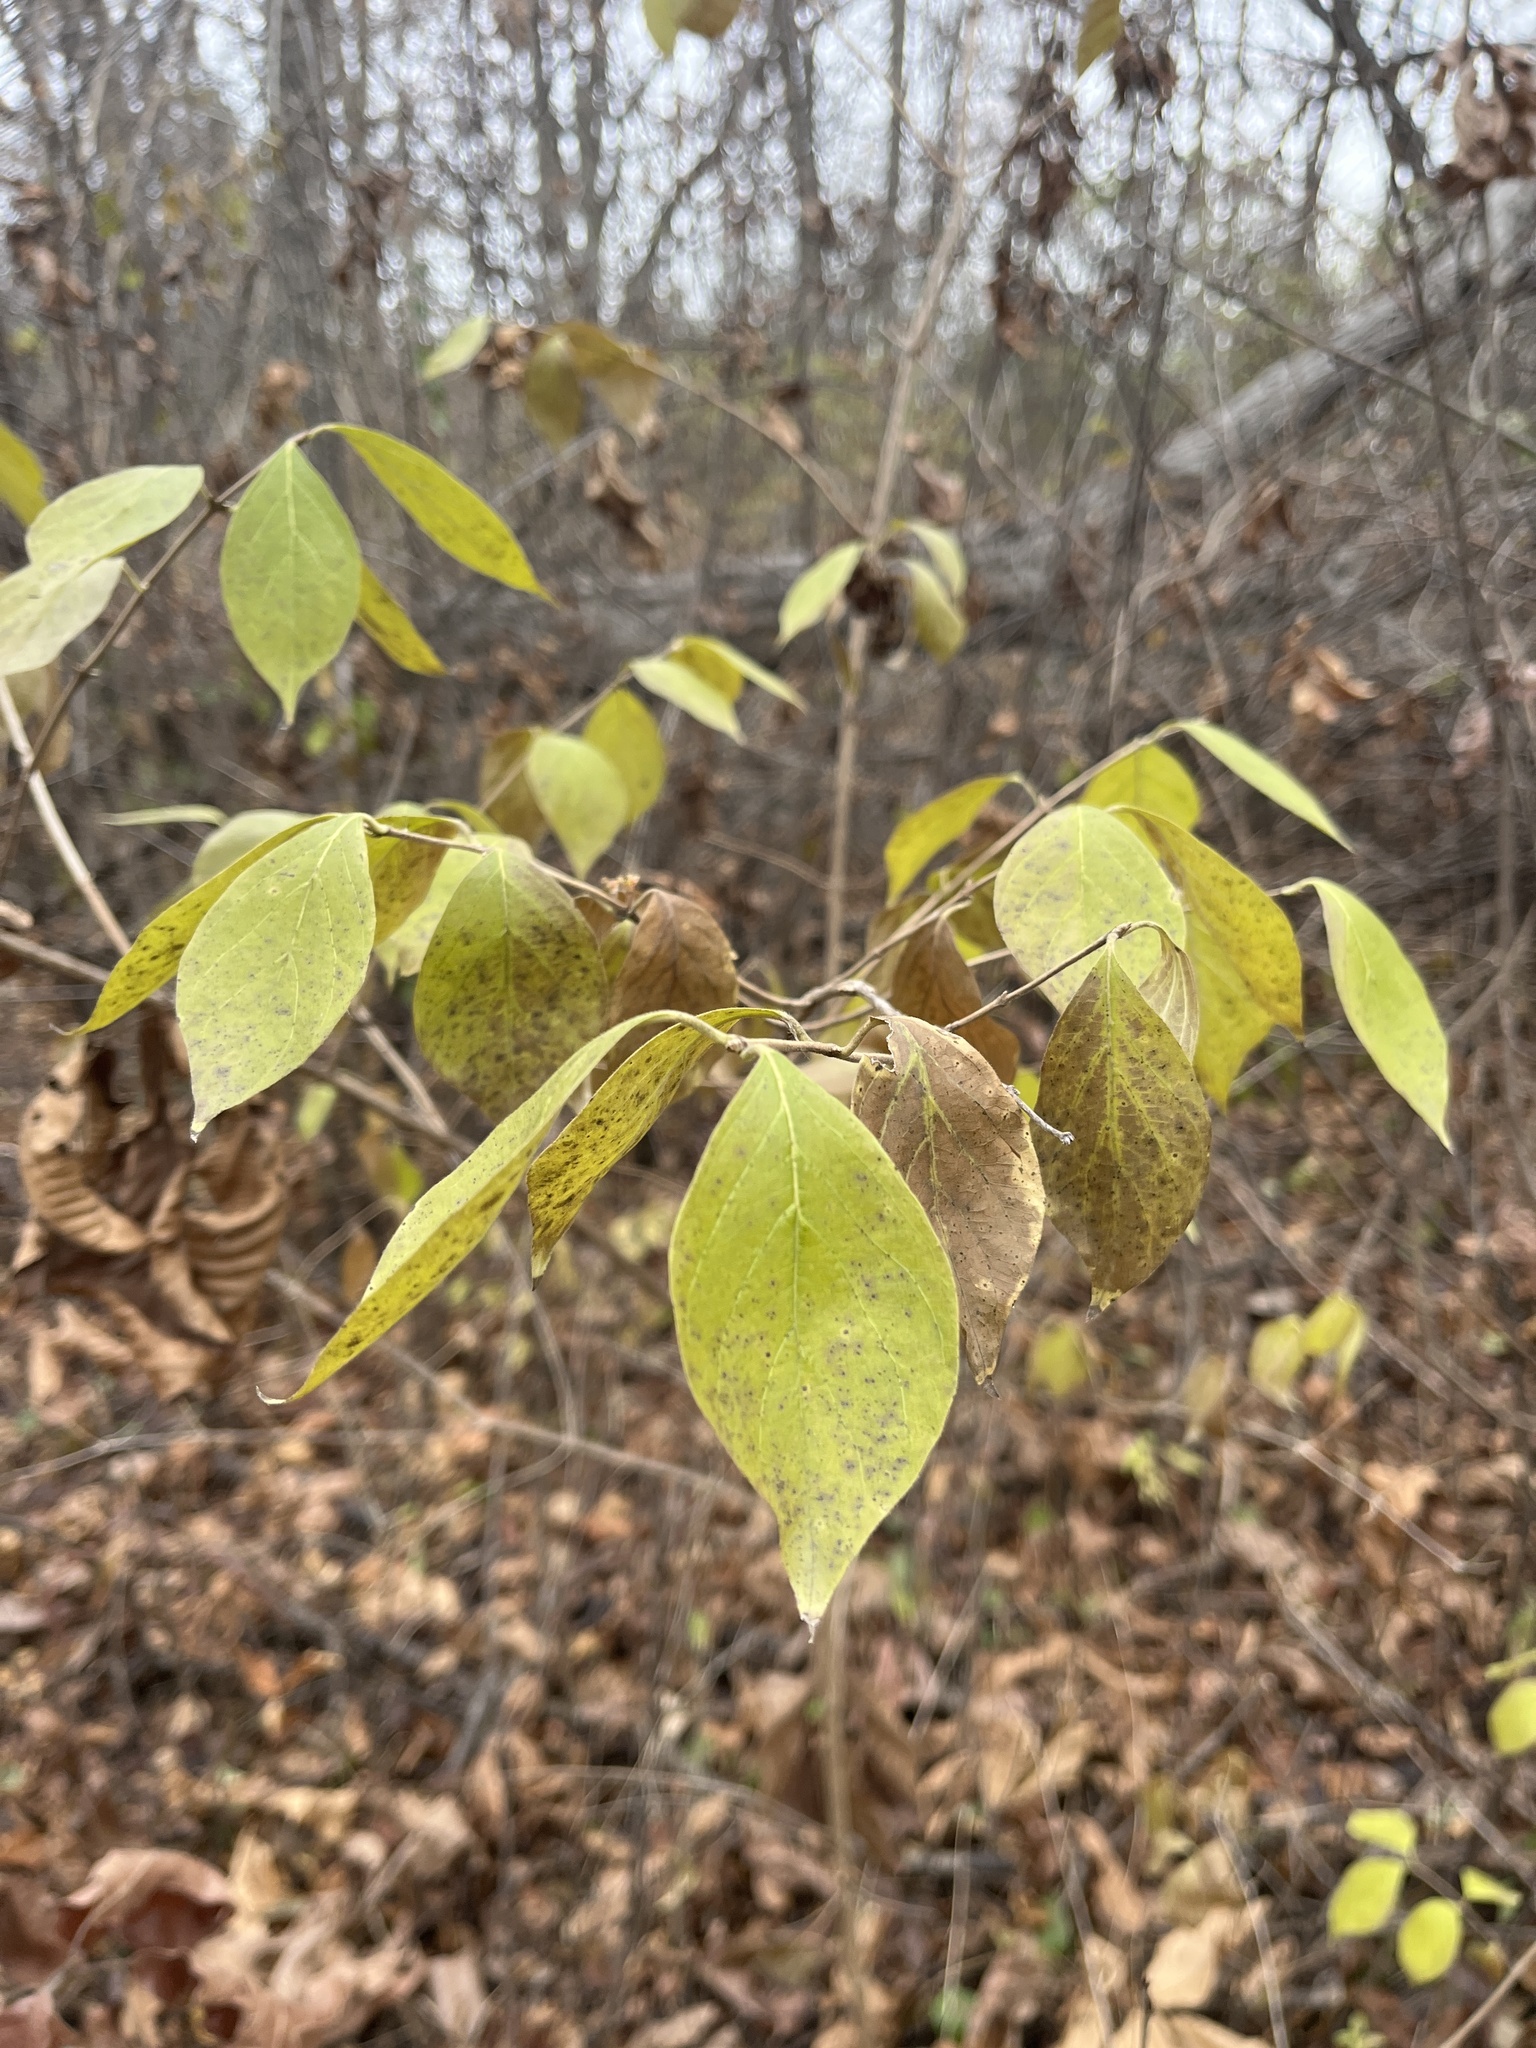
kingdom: Plantae
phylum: Tracheophyta
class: Magnoliopsida
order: Dipsacales
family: Caprifoliaceae
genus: Lonicera
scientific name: Lonicera maackii
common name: Amur honeysuckle
